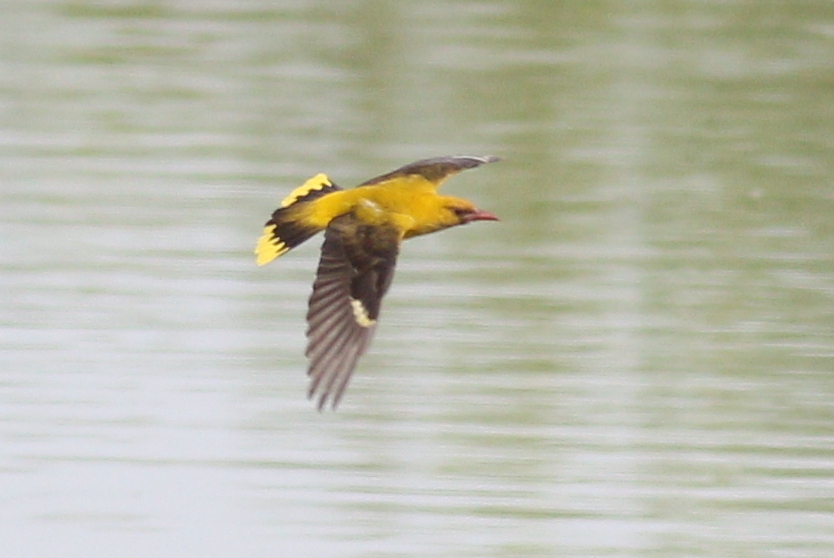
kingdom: Animalia
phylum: Chordata
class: Aves
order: Passeriformes
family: Oriolidae
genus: Oriolus
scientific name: Oriolus oriolus
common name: Eurasian golden oriole
